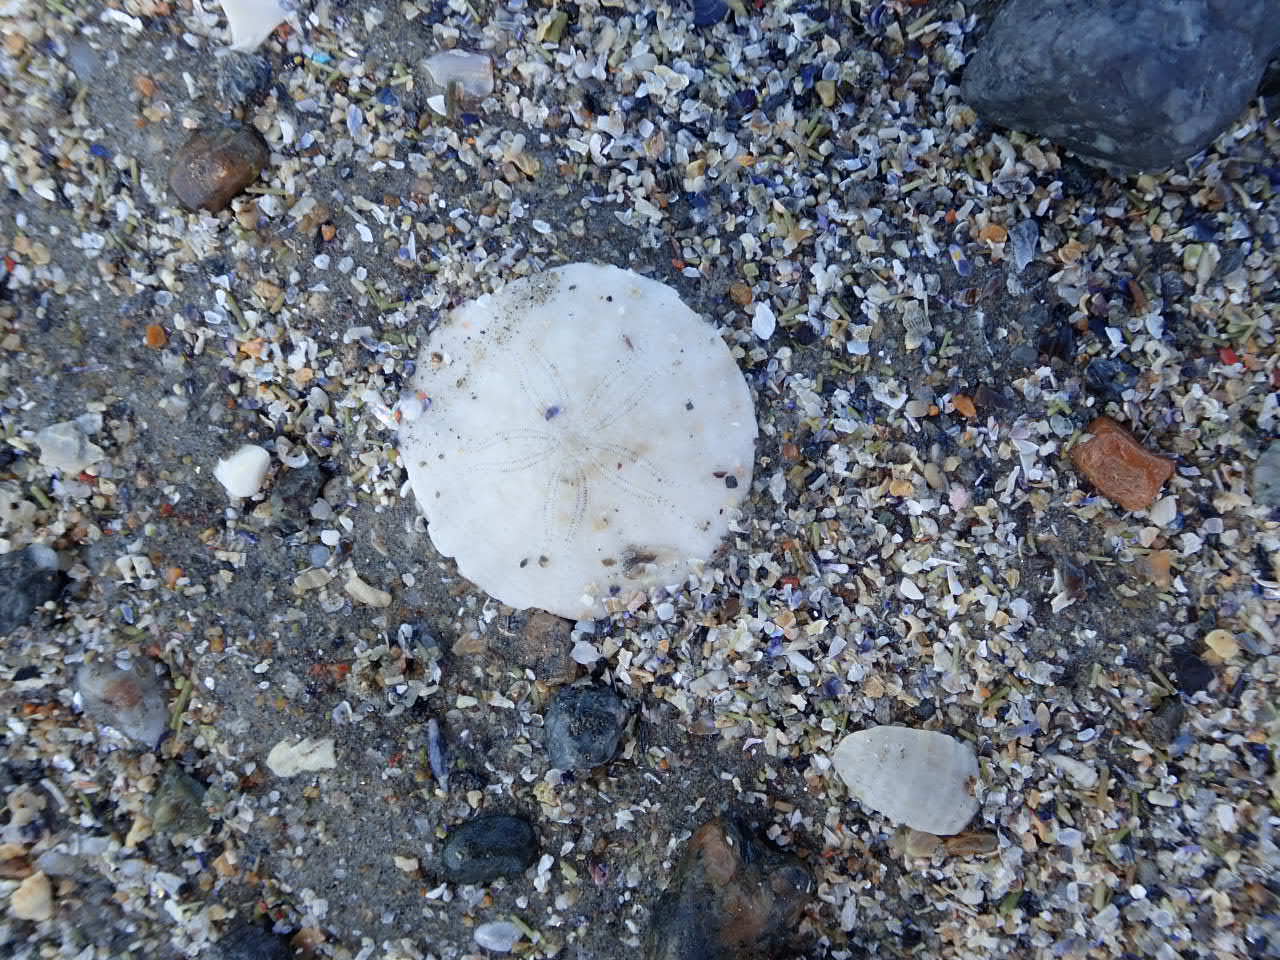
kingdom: Animalia
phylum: Echinodermata
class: Echinoidea
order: Echinolampadacea
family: Echinarachniidae
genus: Echinarachnius
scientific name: Echinarachnius parma
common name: Common sand dollar
